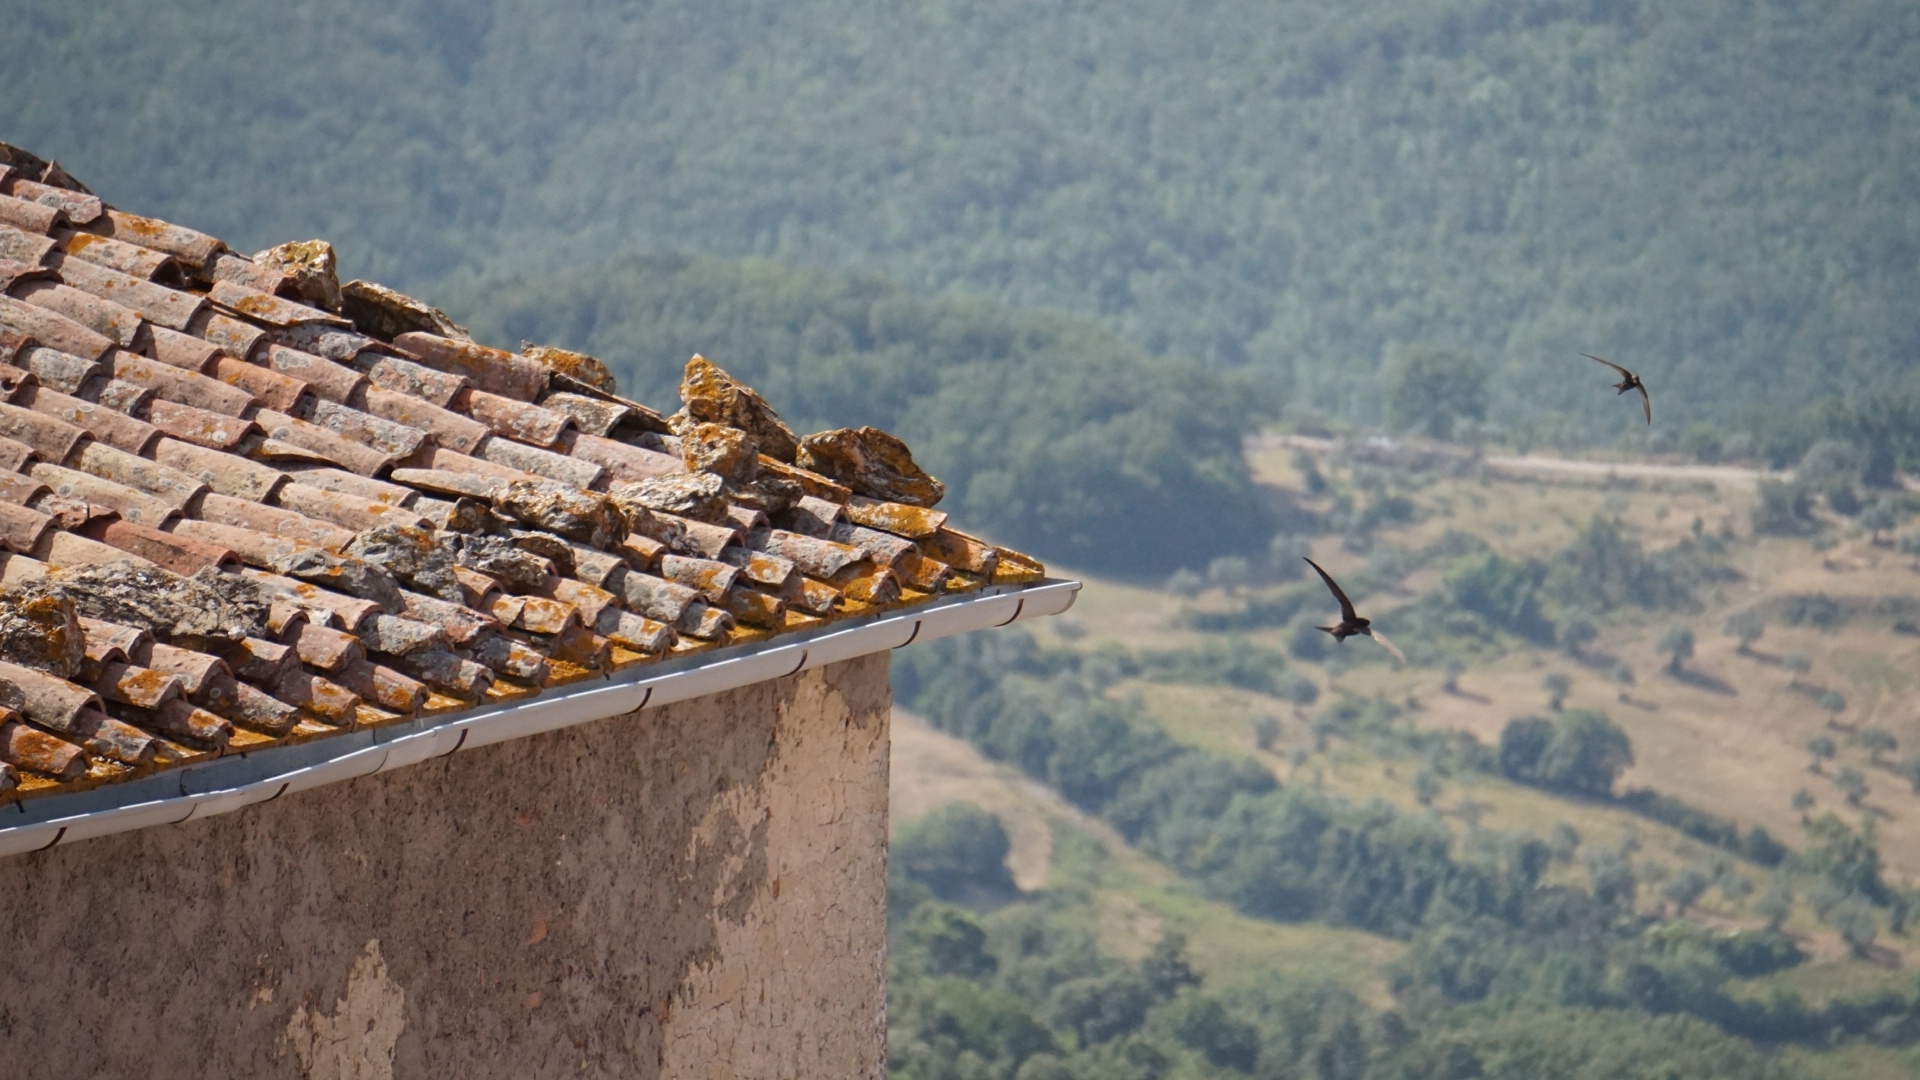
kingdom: Animalia
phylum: Chordata
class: Aves
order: Apodiformes
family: Apodidae
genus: Apus
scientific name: Apus apus
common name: Common swift
